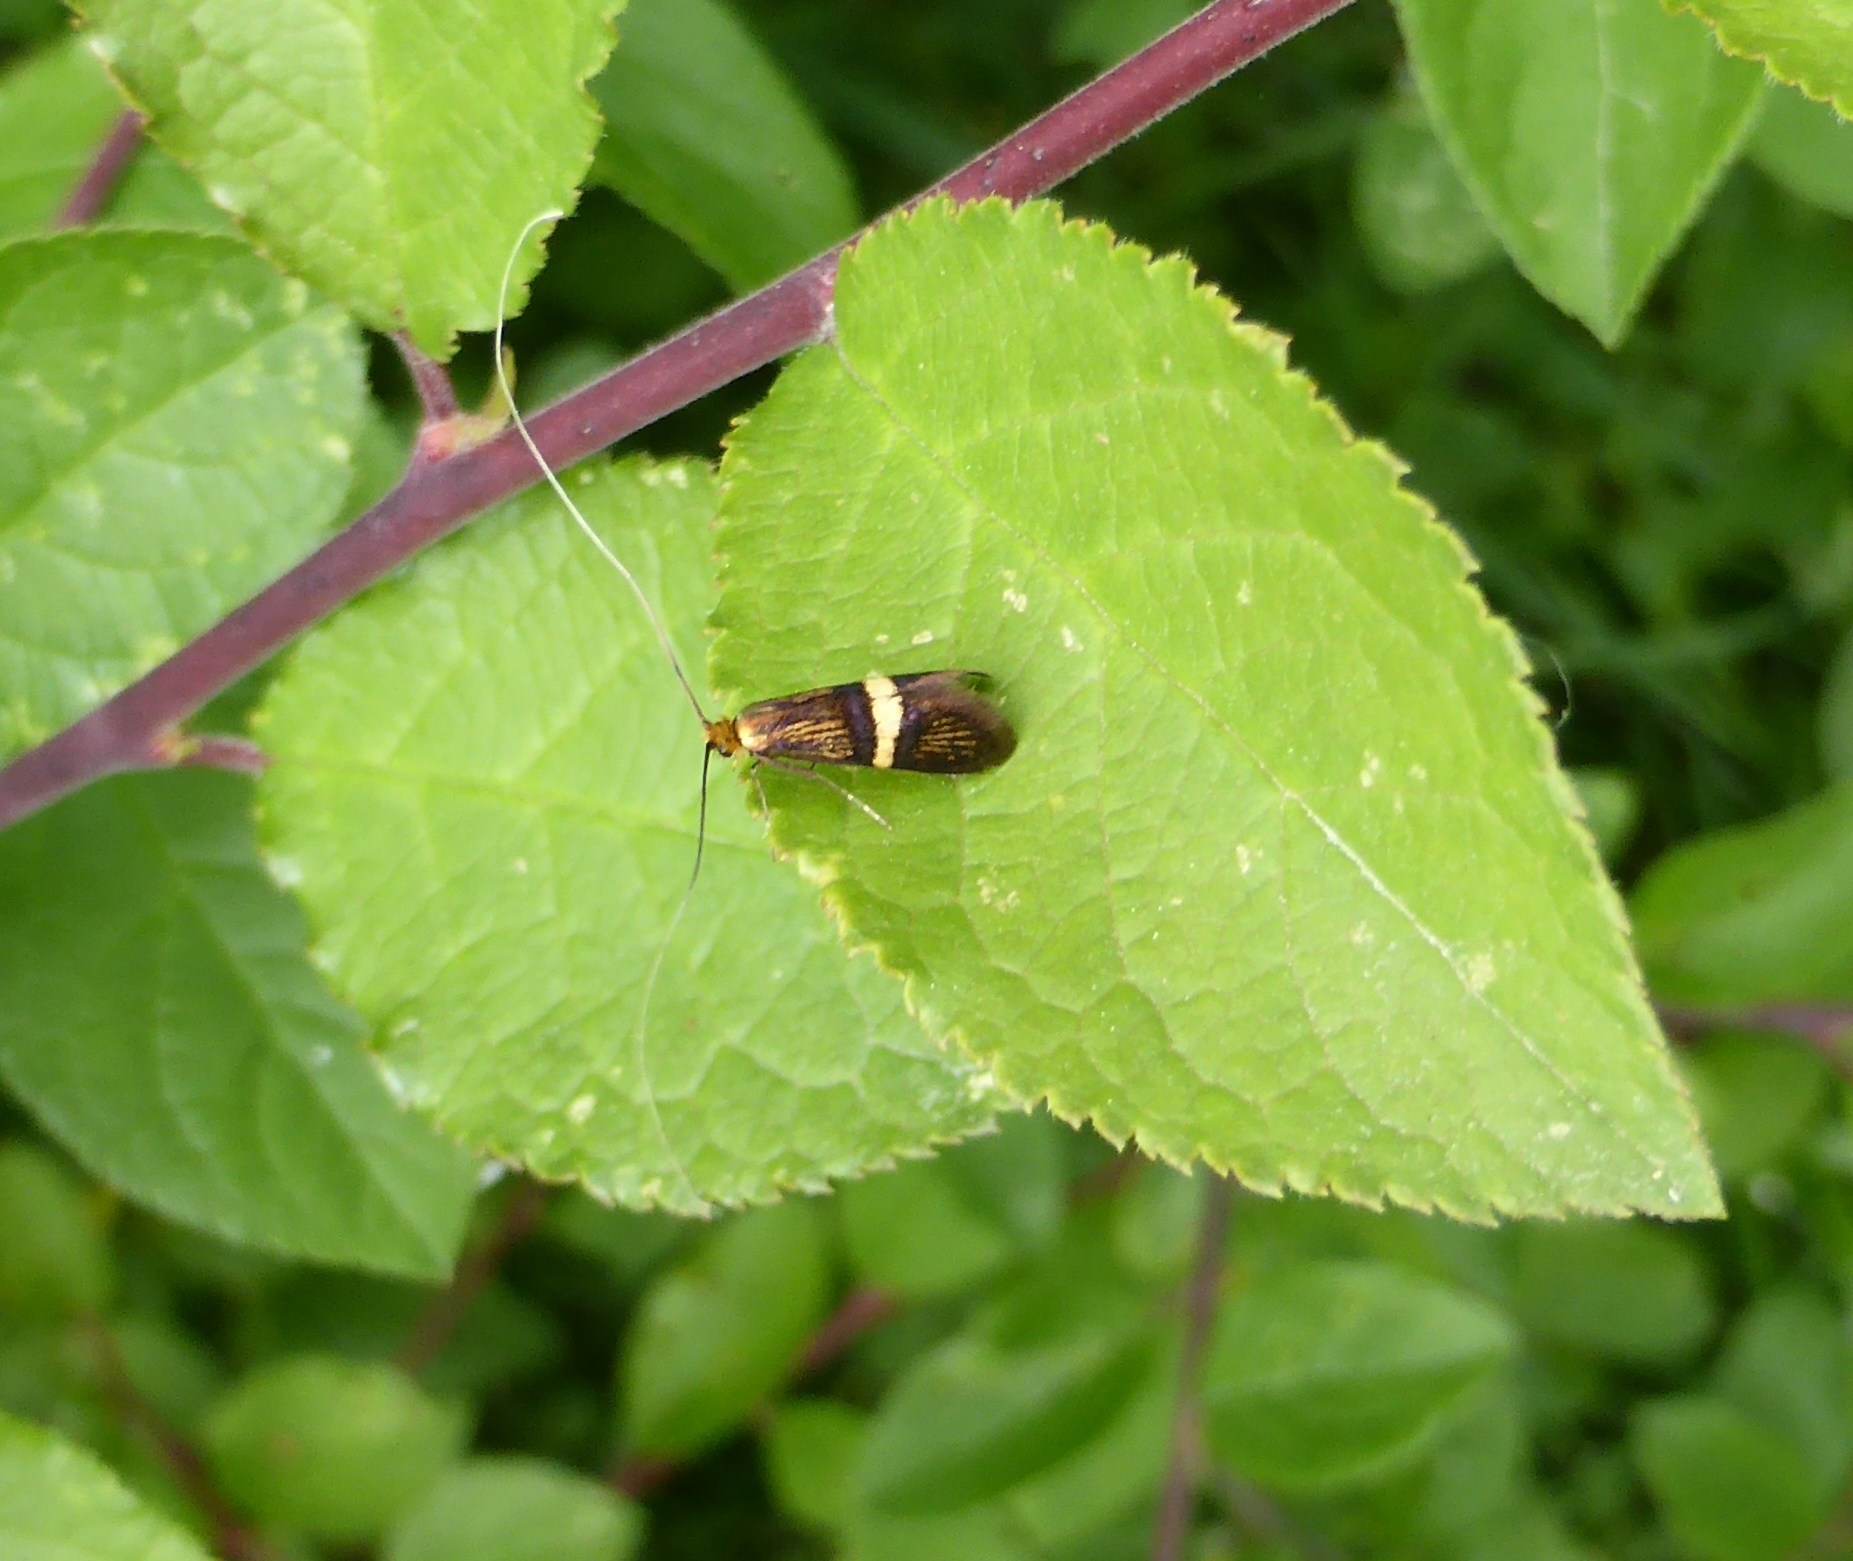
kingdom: Animalia
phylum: Arthropoda
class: Insecta
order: Lepidoptera
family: Adelidae
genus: Adela
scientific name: Adela croesella
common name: Small barred long-horn
